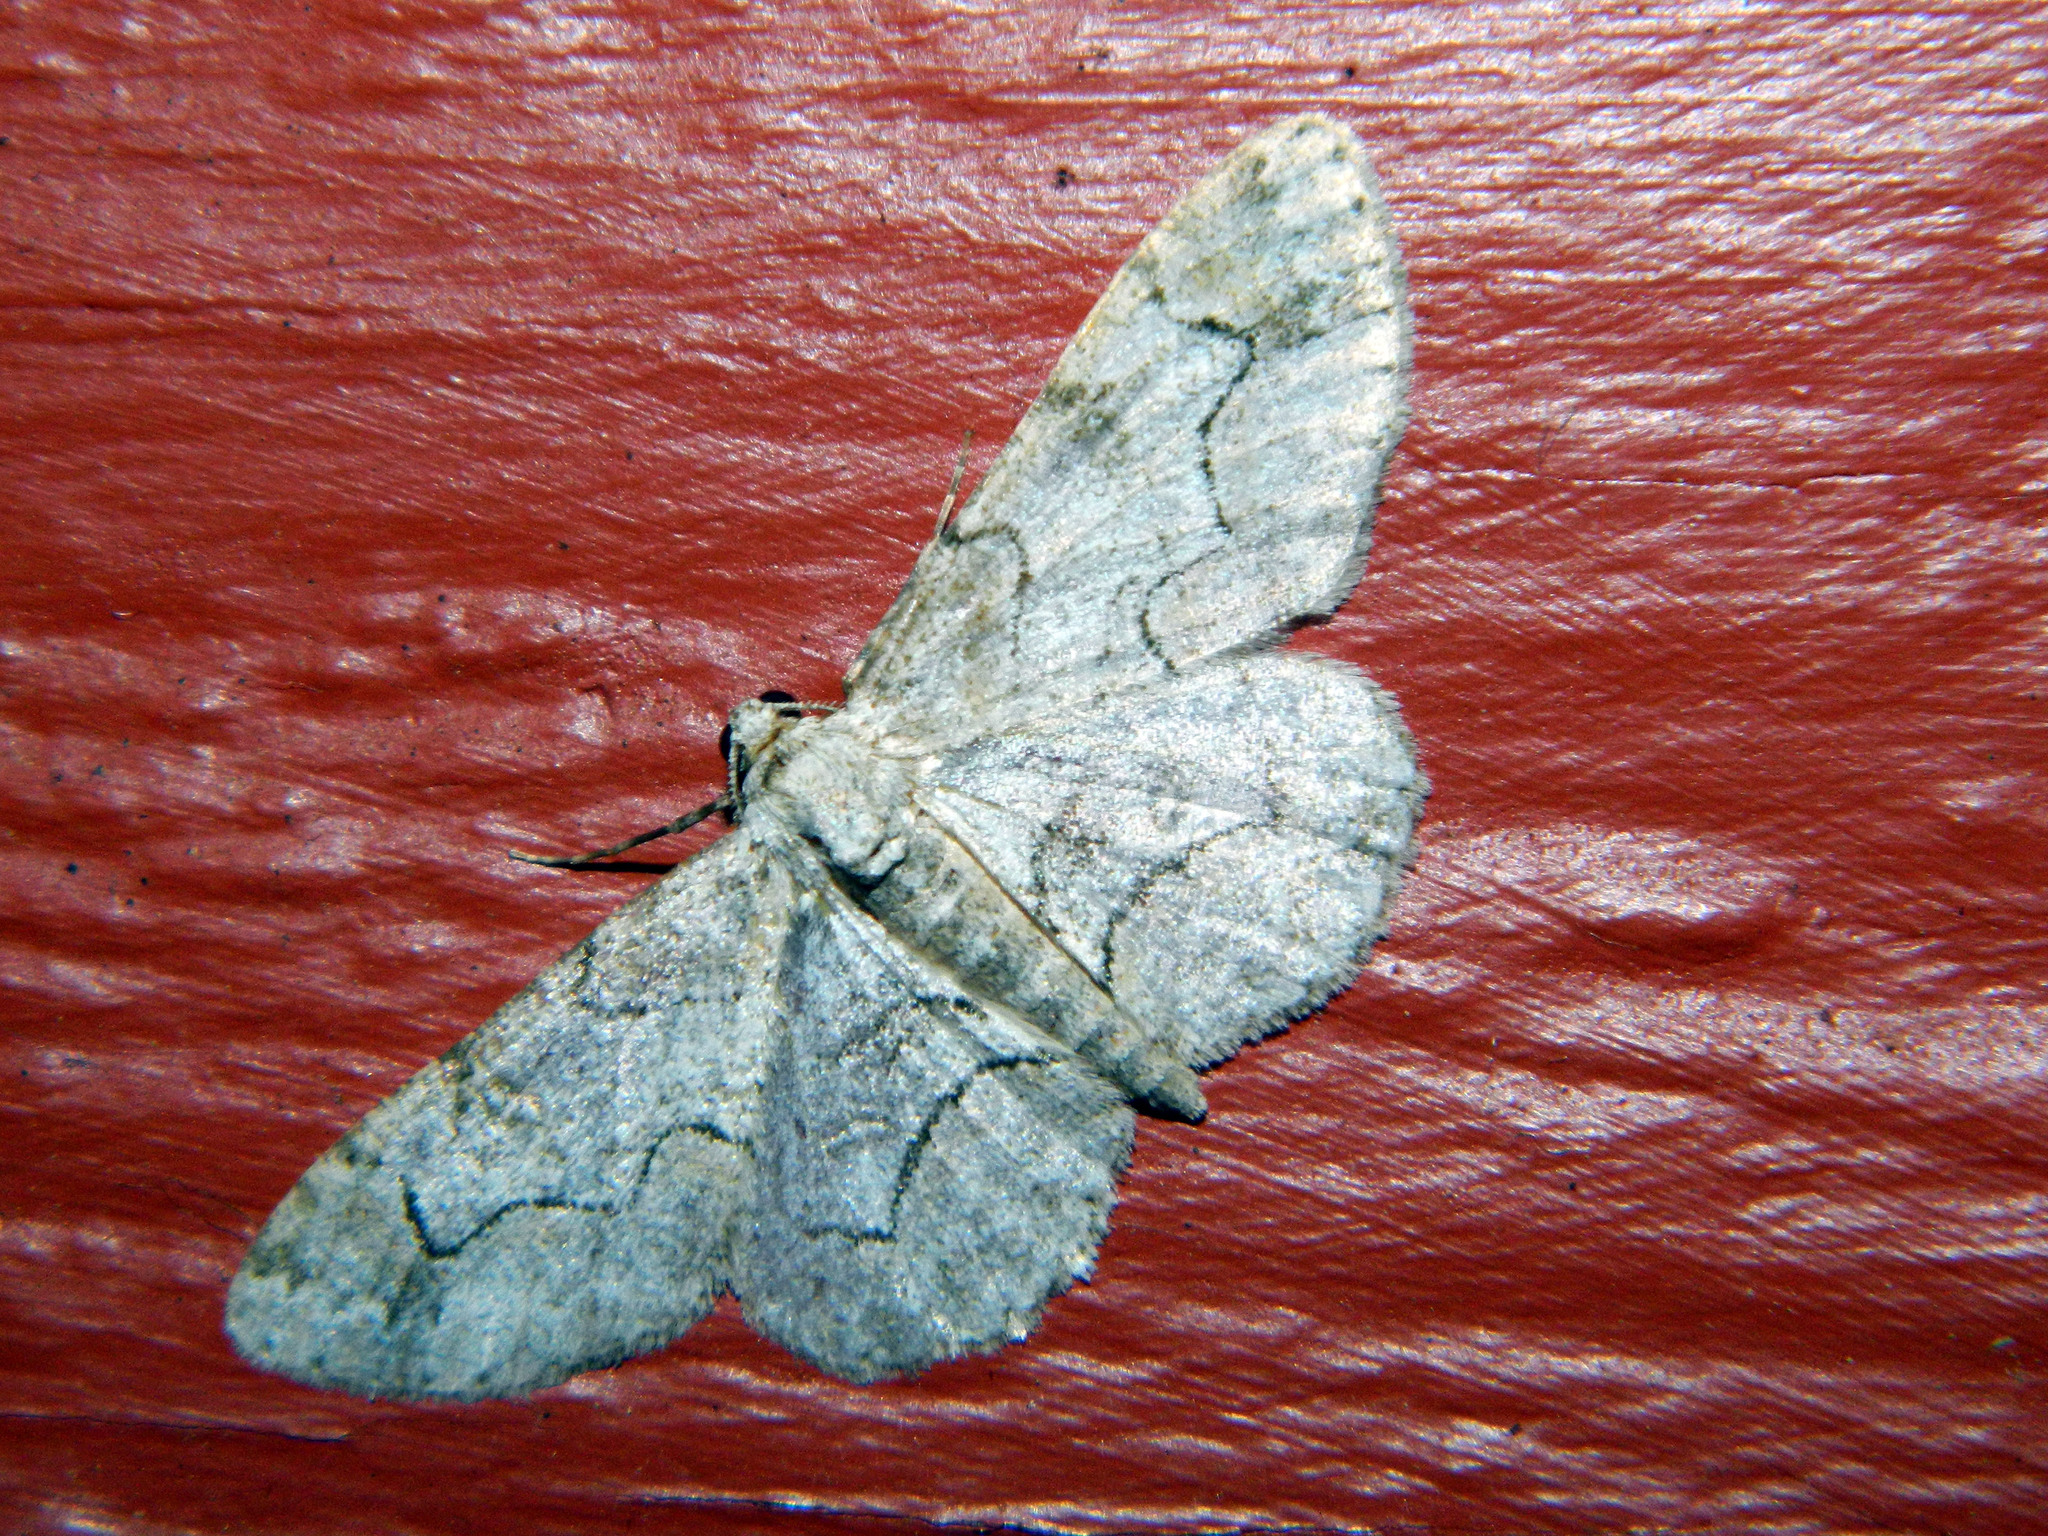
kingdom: Animalia
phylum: Arthropoda
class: Insecta
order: Lepidoptera
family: Geometridae
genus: Iridopsis
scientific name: Iridopsis larvaria
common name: Bent-line gray
